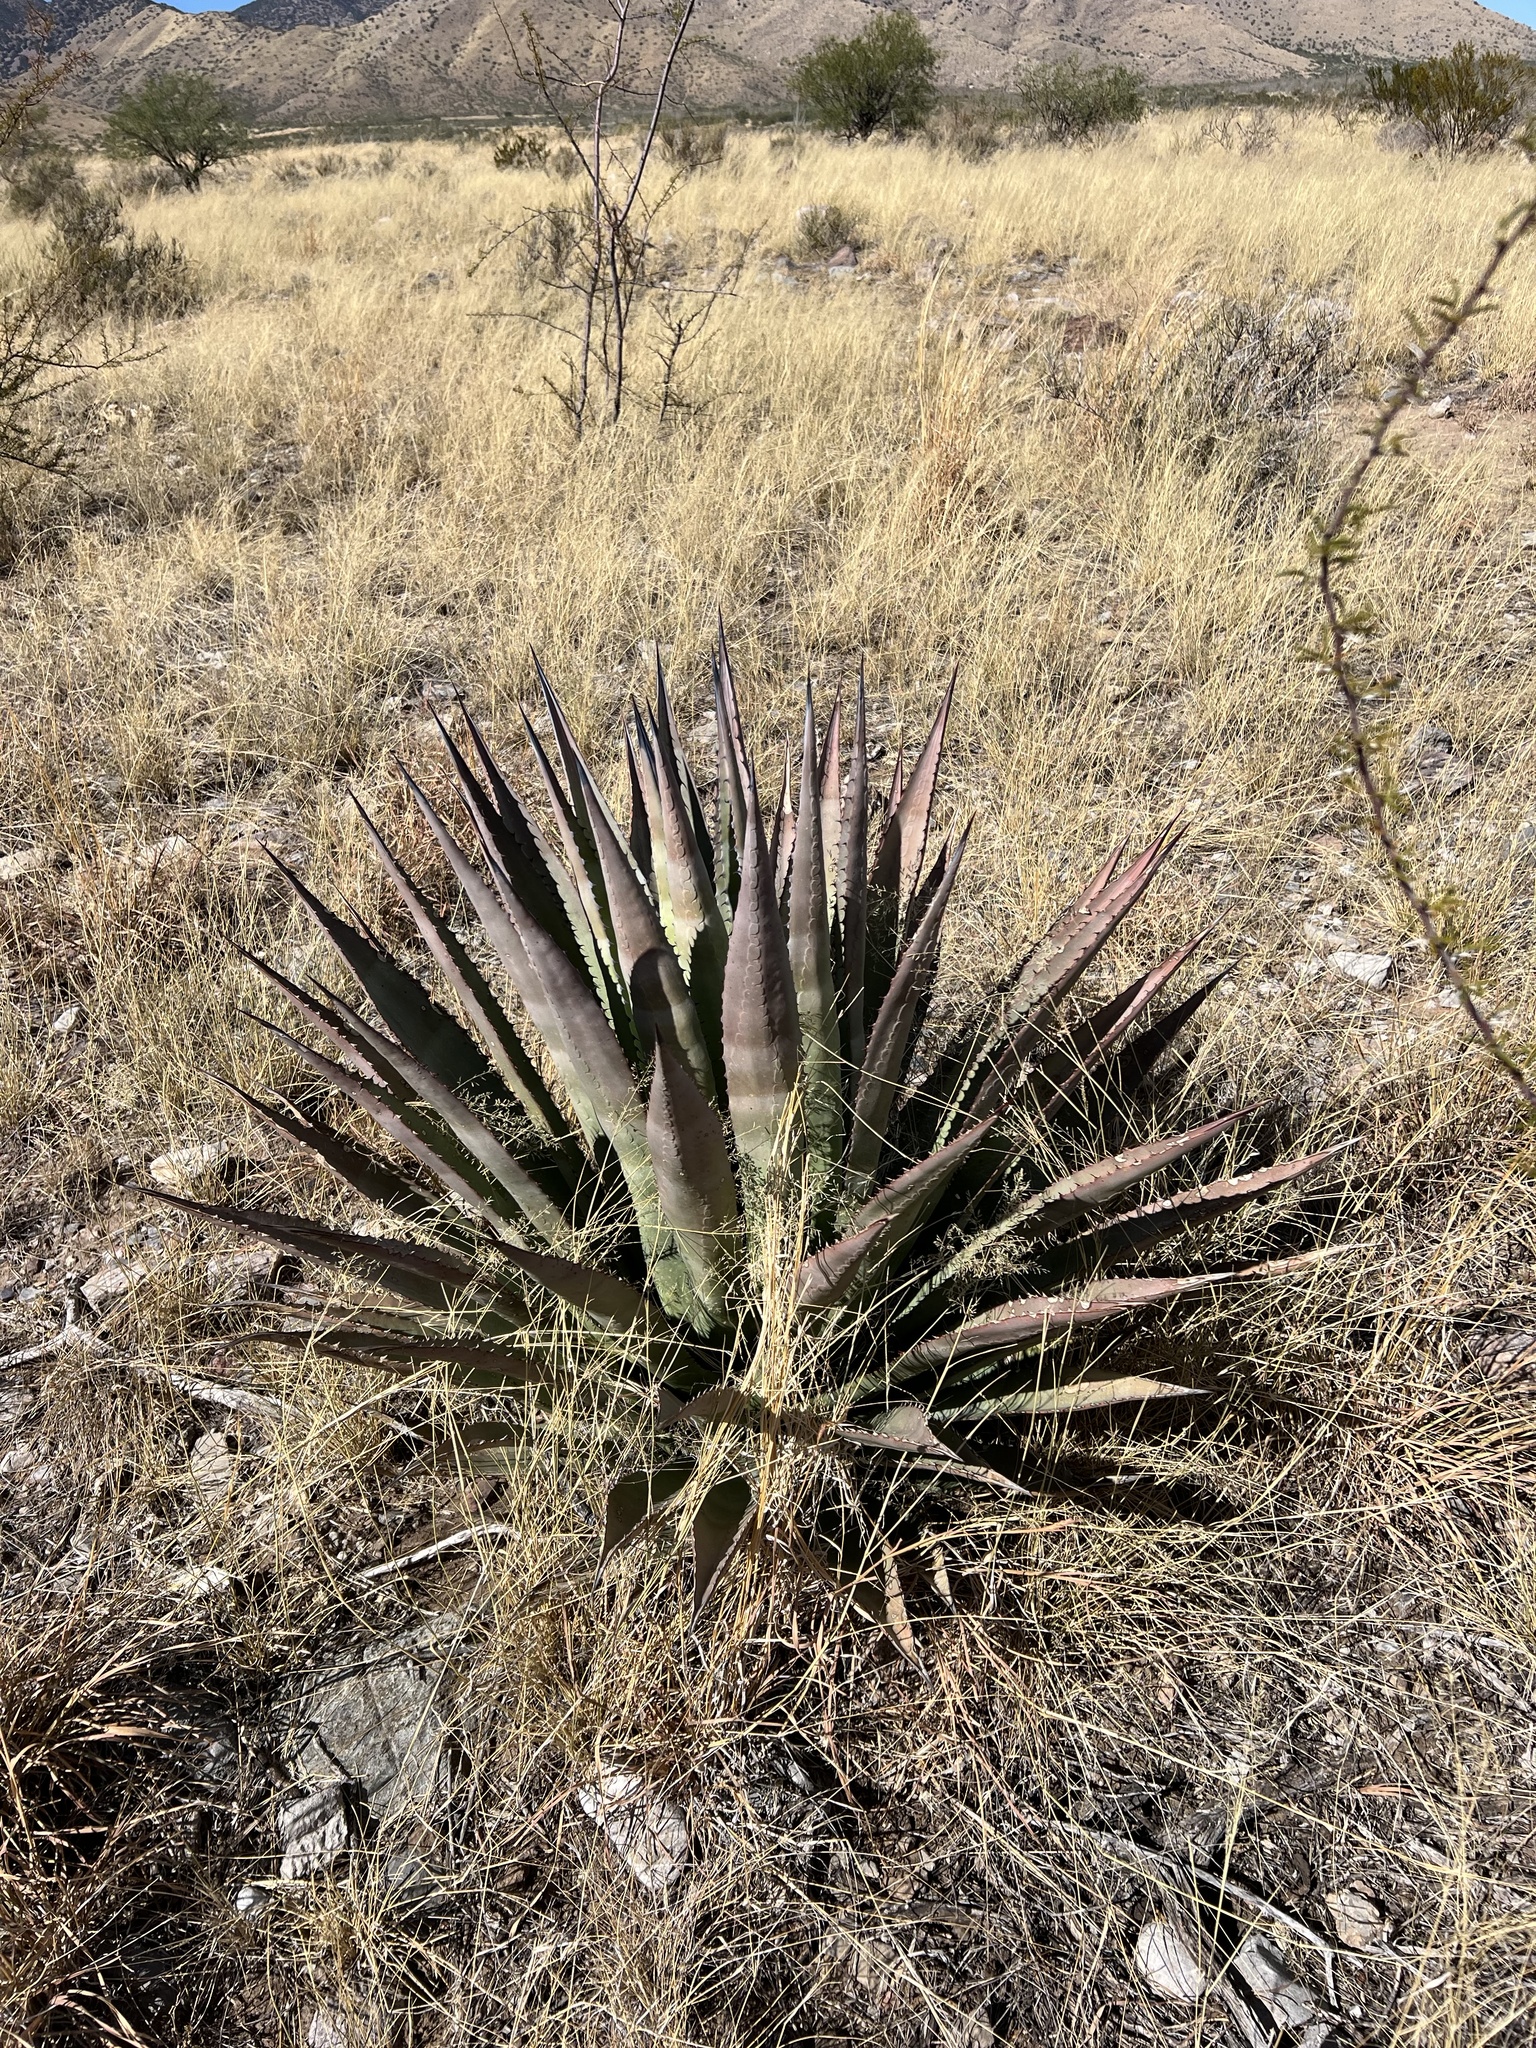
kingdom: Plantae
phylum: Tracheophyta
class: Liliopsida
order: Asparagales
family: Asparagaceae
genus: Agave
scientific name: Agave palmeri
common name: Palmer agave
